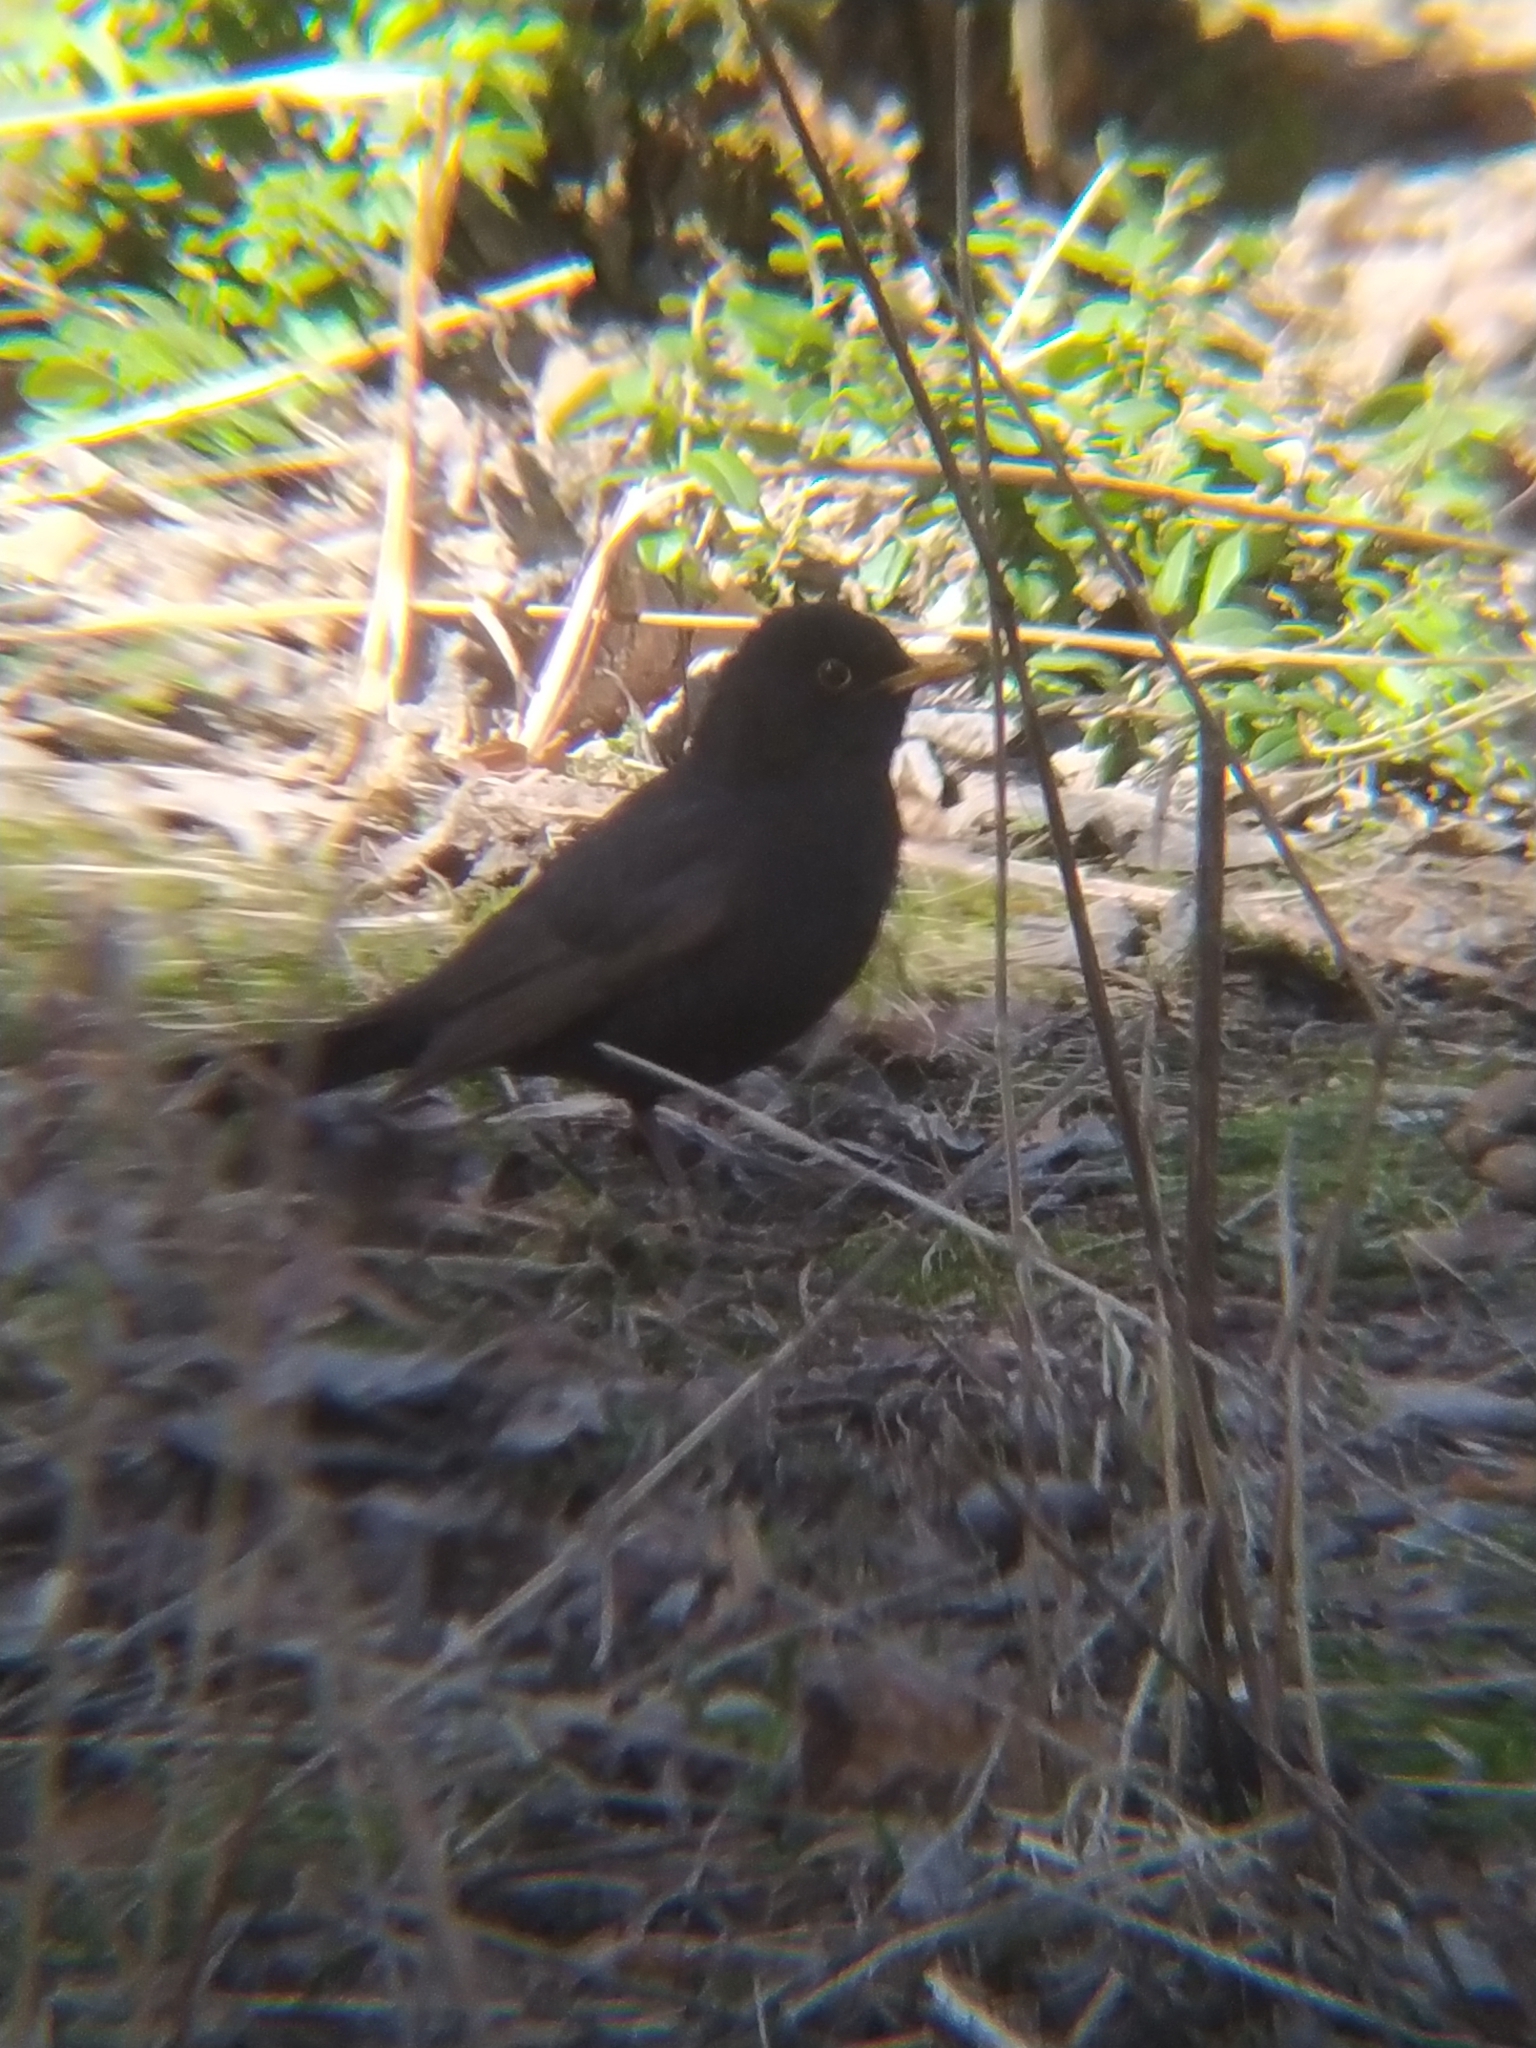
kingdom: Animalia
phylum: Chordata
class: Aves
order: Passeriformes
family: Turdidae
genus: Turdus
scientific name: Turdus merula
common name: Common blackbird
